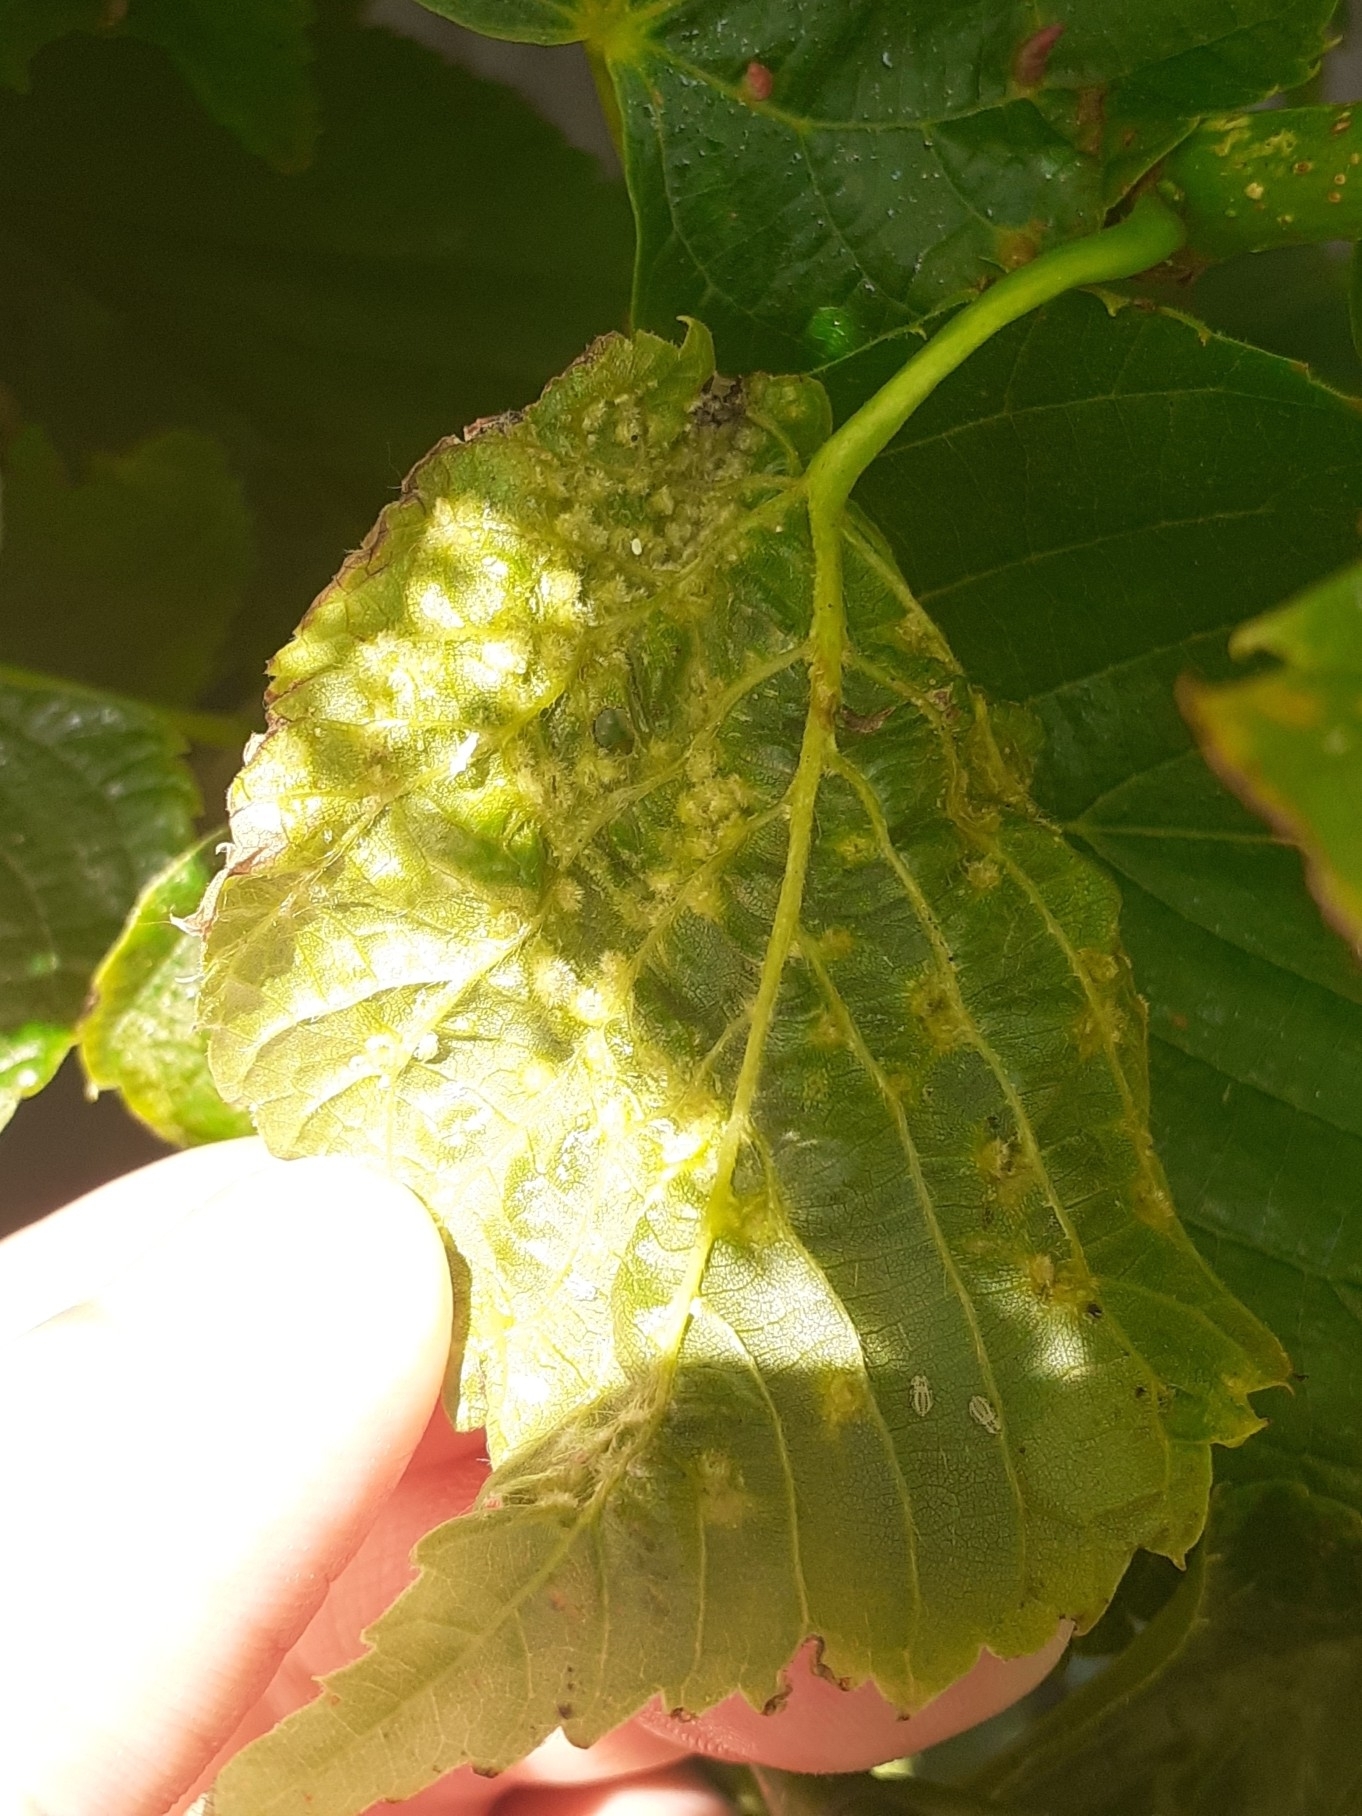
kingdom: Animalia
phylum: Arthropoda
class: Arachnida
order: Trombidiformes
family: Eriophyidae
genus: Eriophyes
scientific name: Eriophyes tiliae
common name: Red nail gall mite
